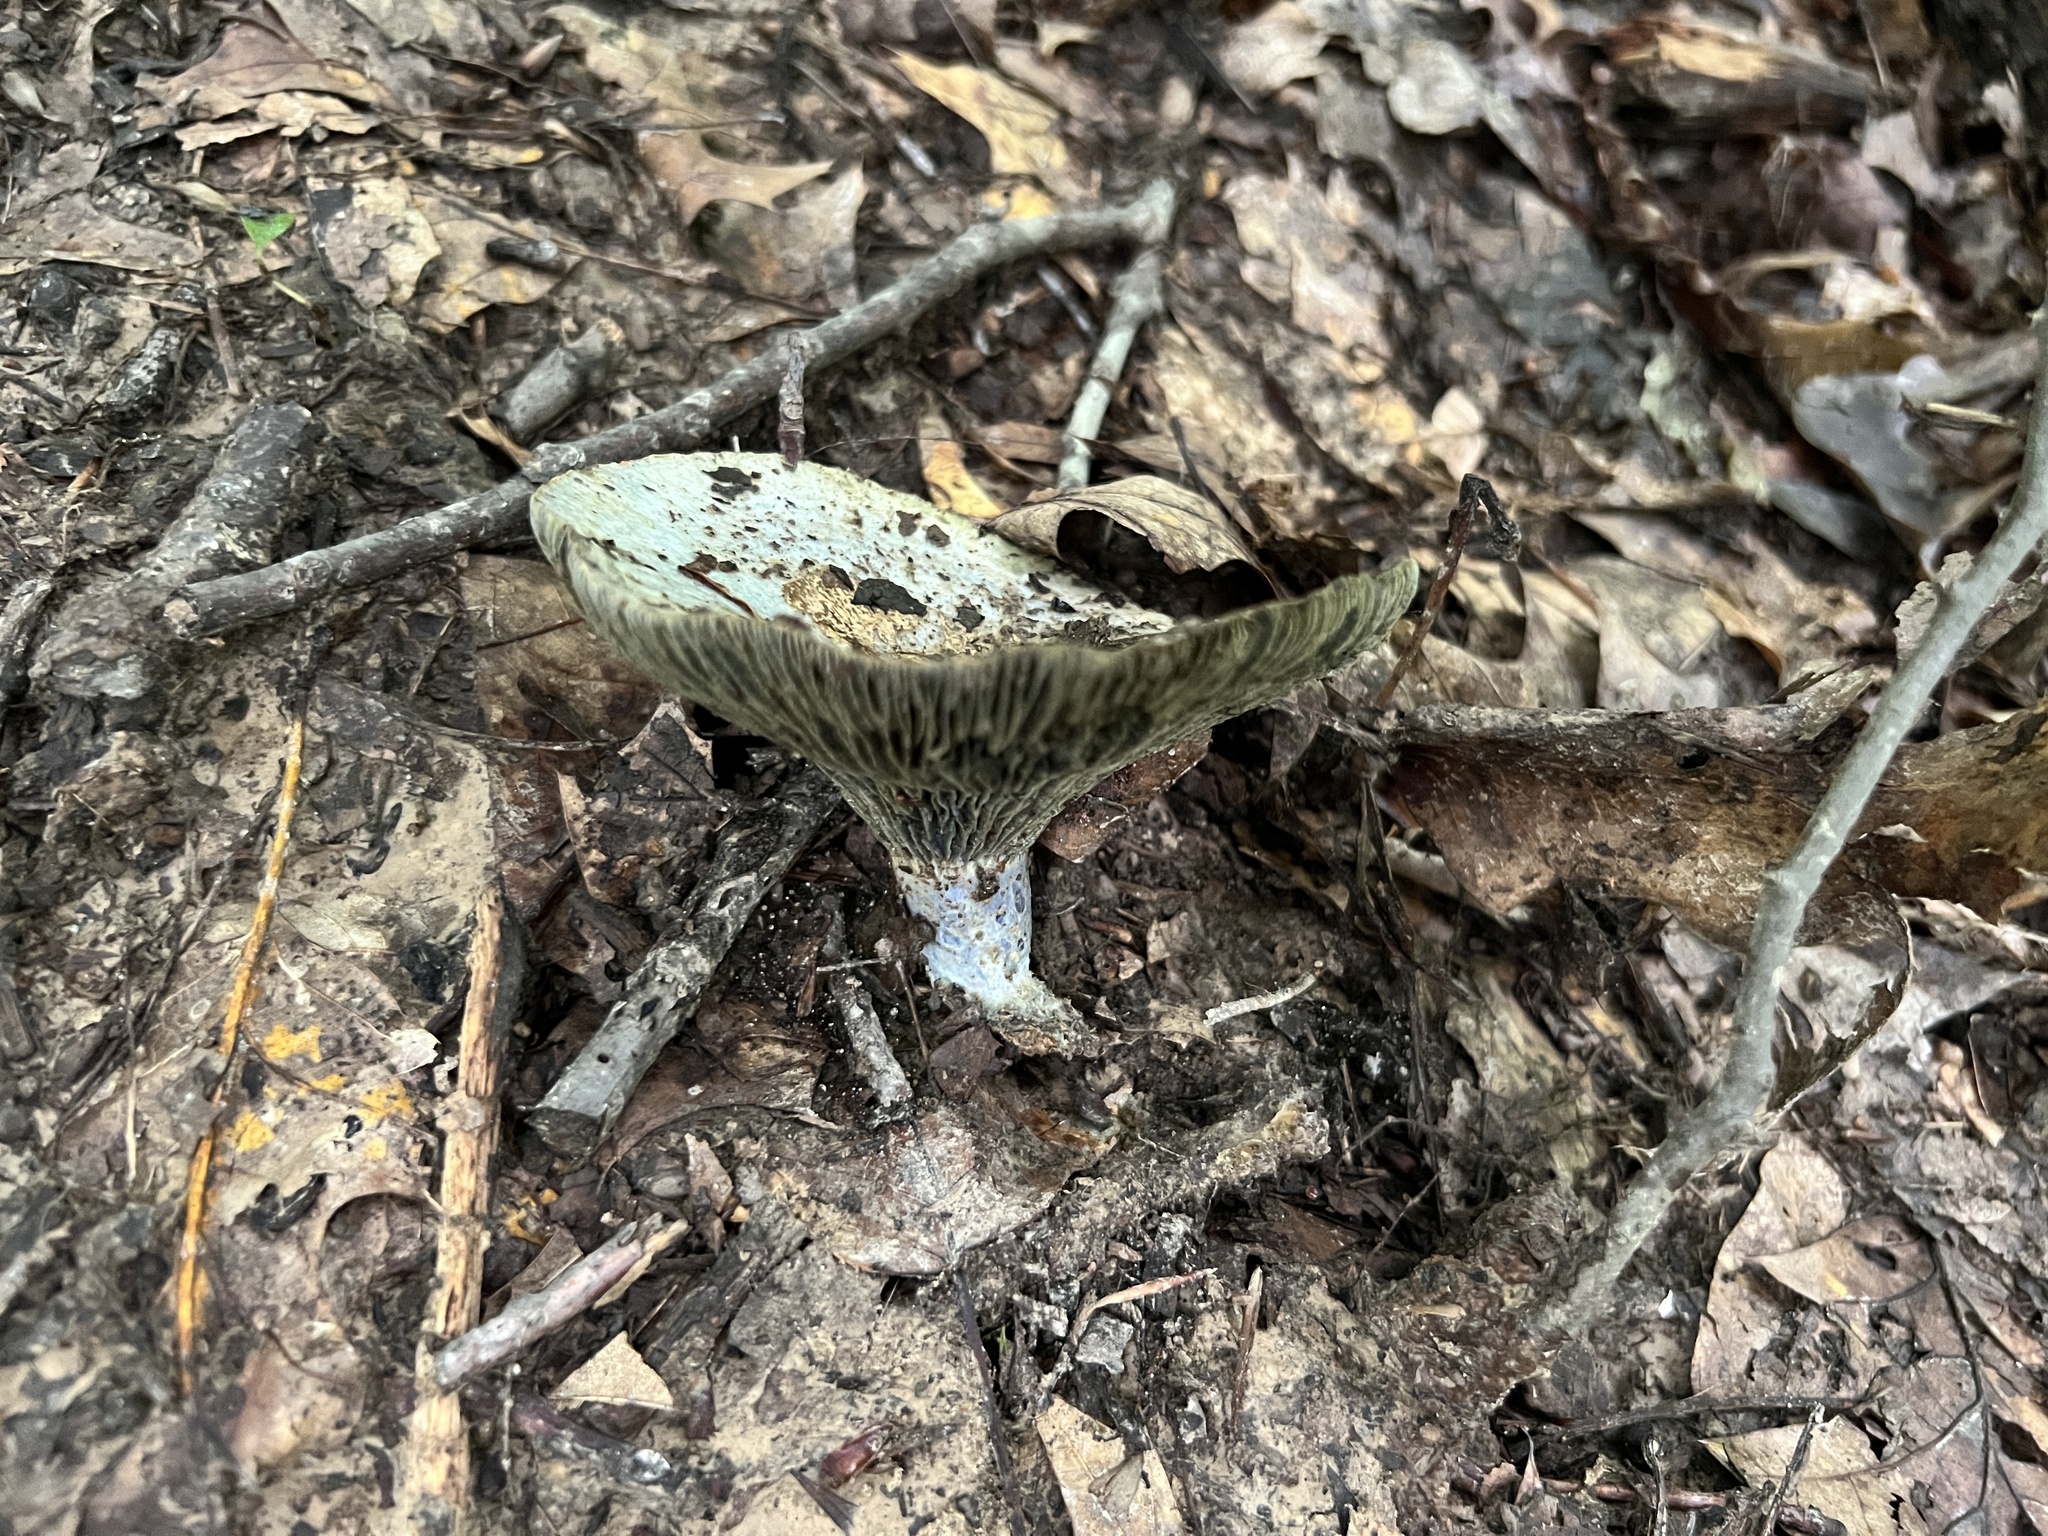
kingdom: Fungi
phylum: Basidiomycota
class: Agaricomycetes
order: Russulales
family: Russulaceae
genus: Lactarius
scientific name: Lactarius indigo
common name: Indigo milk cap
